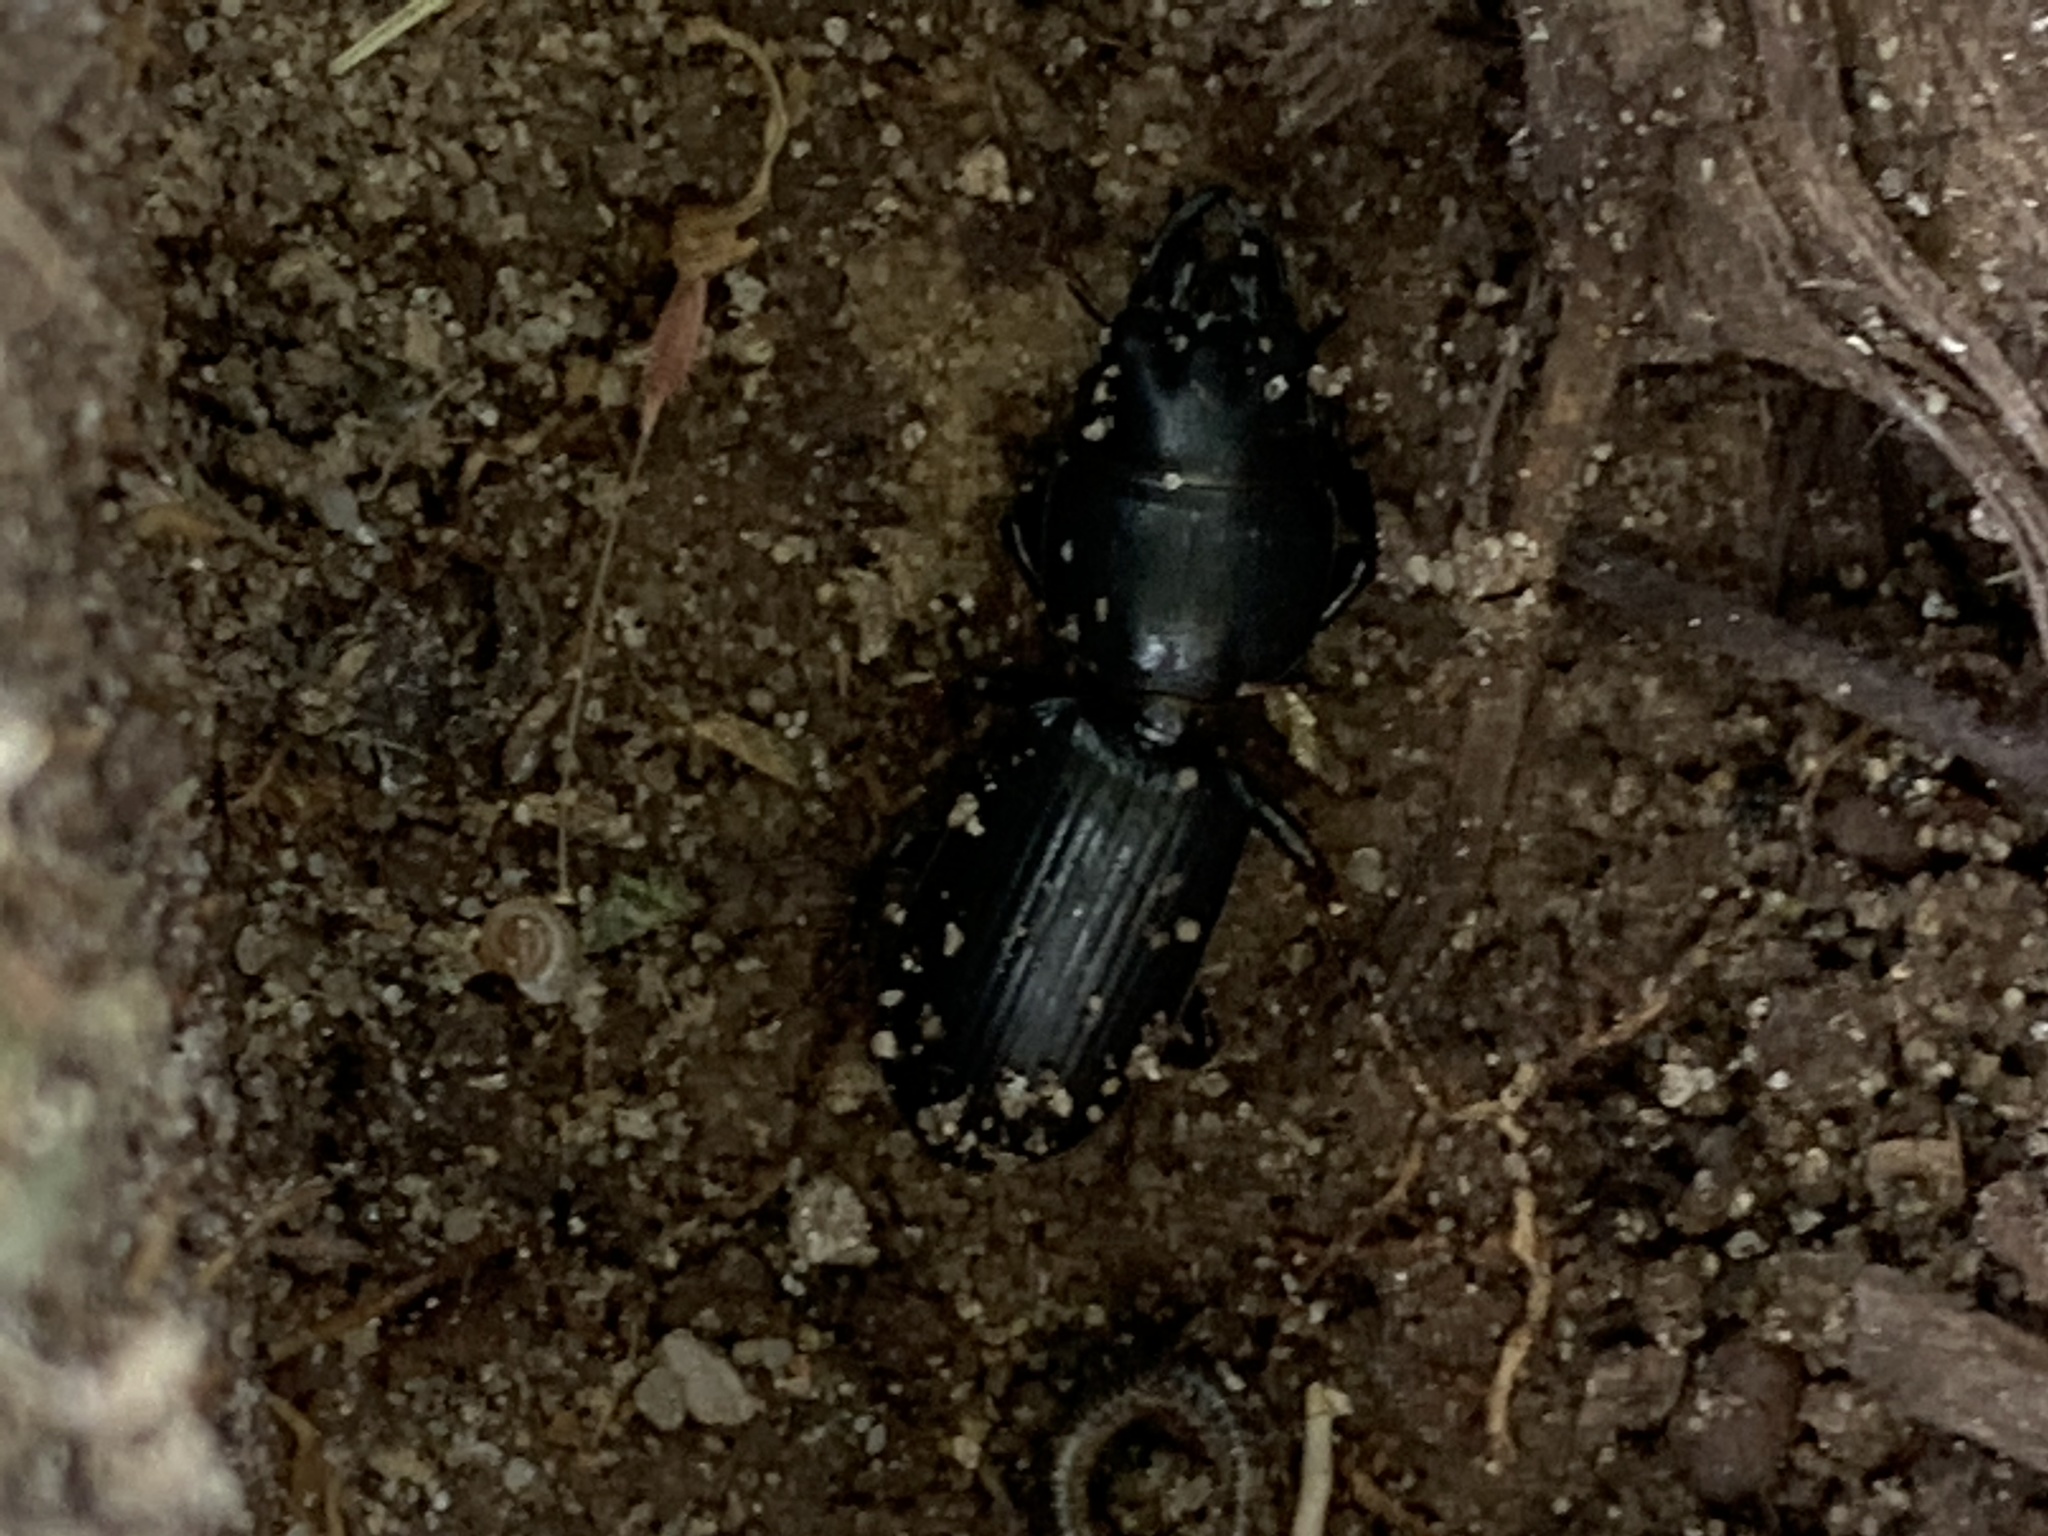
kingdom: Animalia
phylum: Arthropoda
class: Insecta
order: Coleoptera
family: Carabidae
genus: Scarites
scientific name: Scarites subterraneus
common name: Big-headed ground beetle
